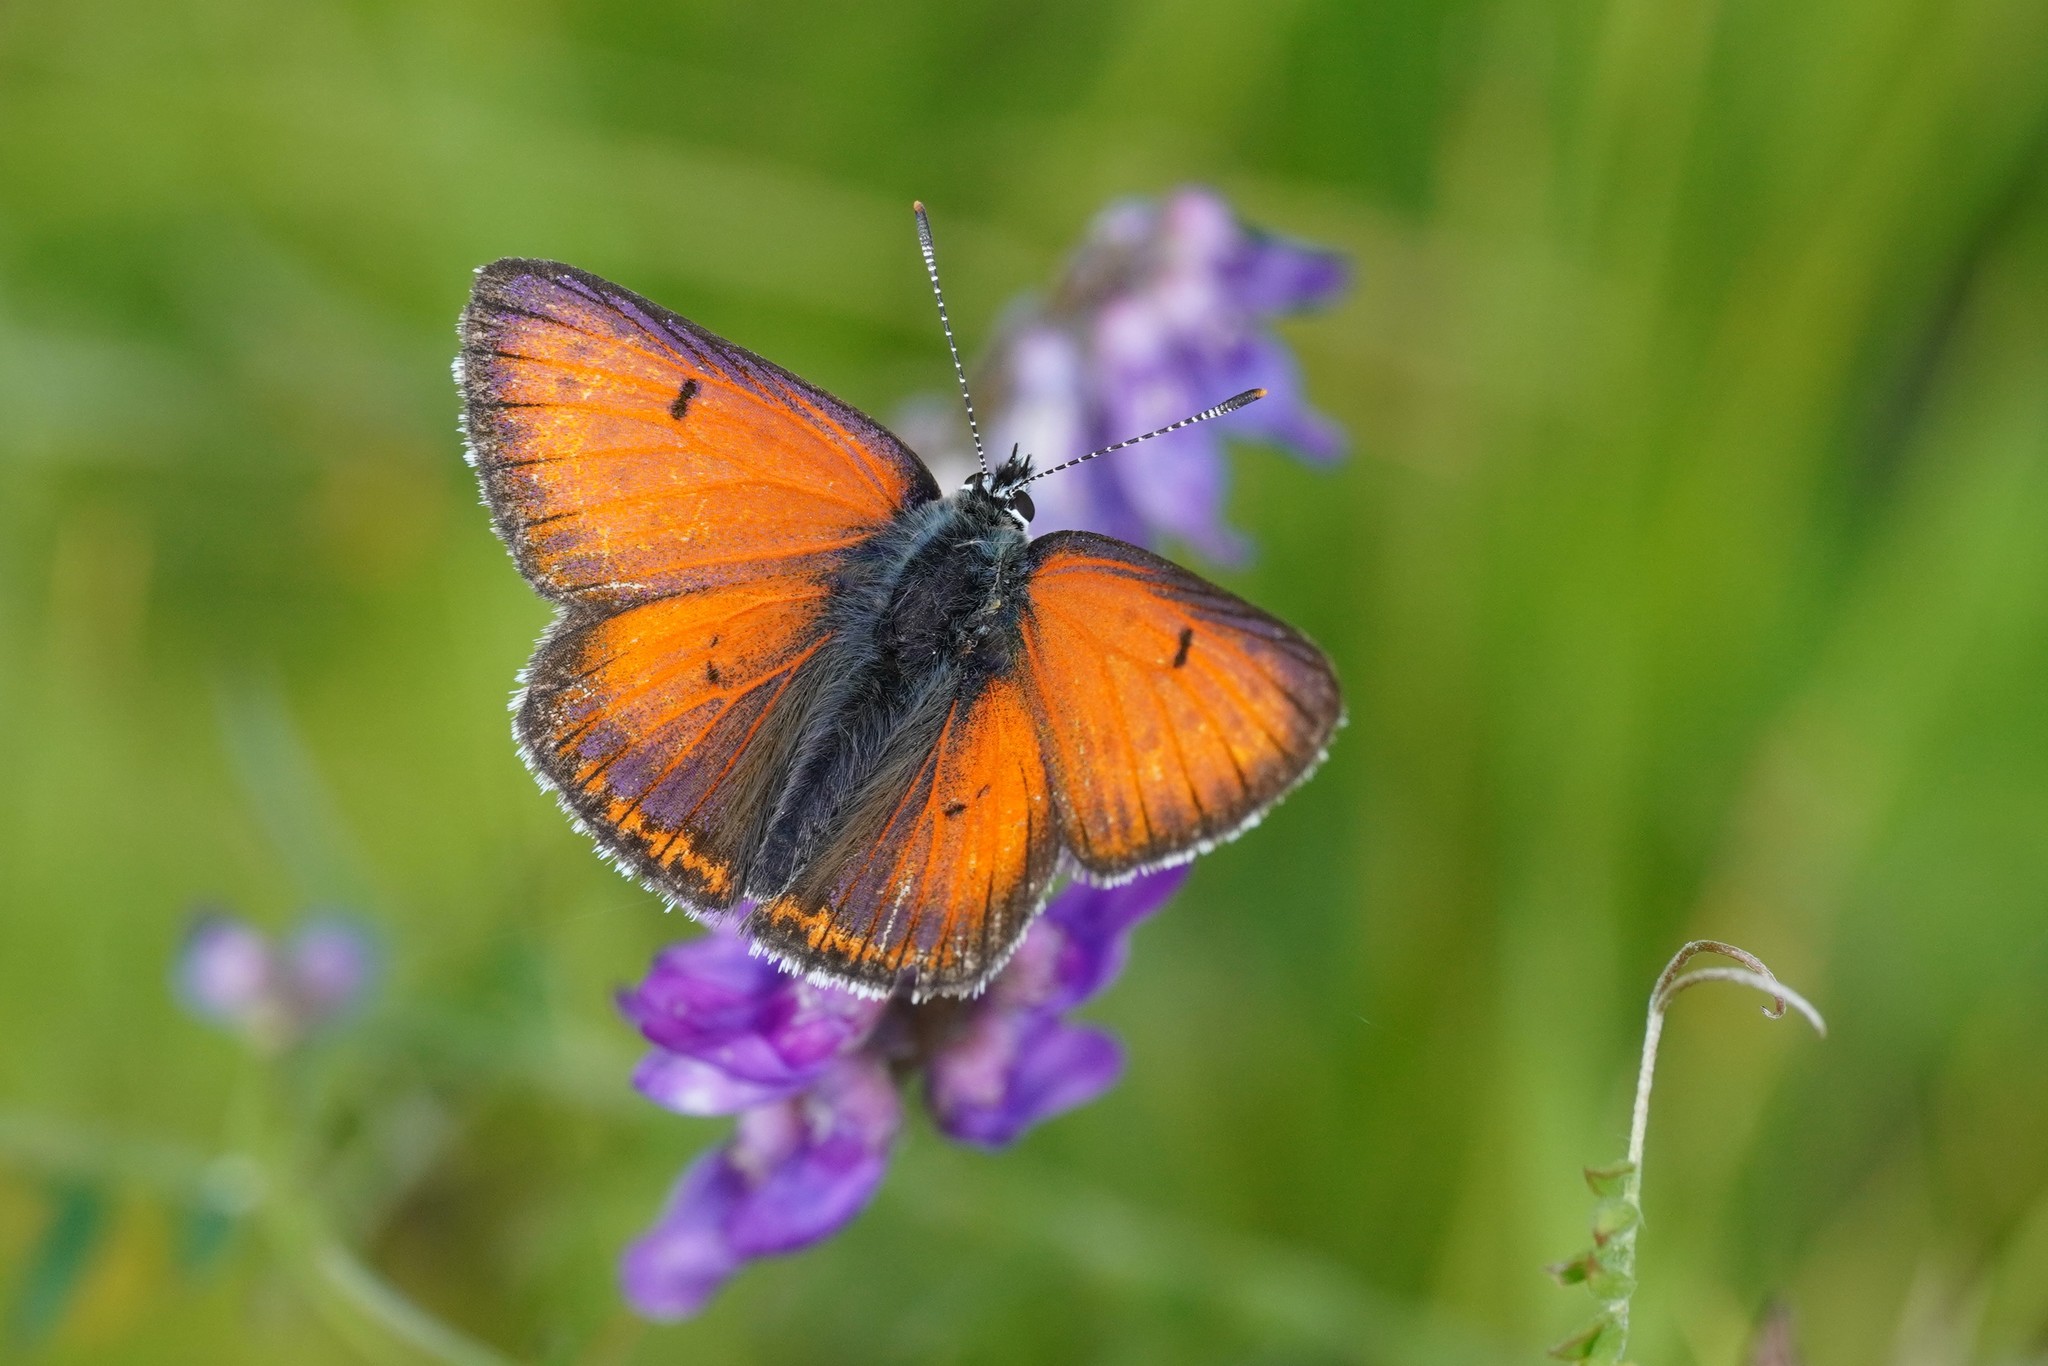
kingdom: Animalia
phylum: Arthropoda
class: Insecta
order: Lepidoptera
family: Lycaenidae
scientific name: Lycaenidae
